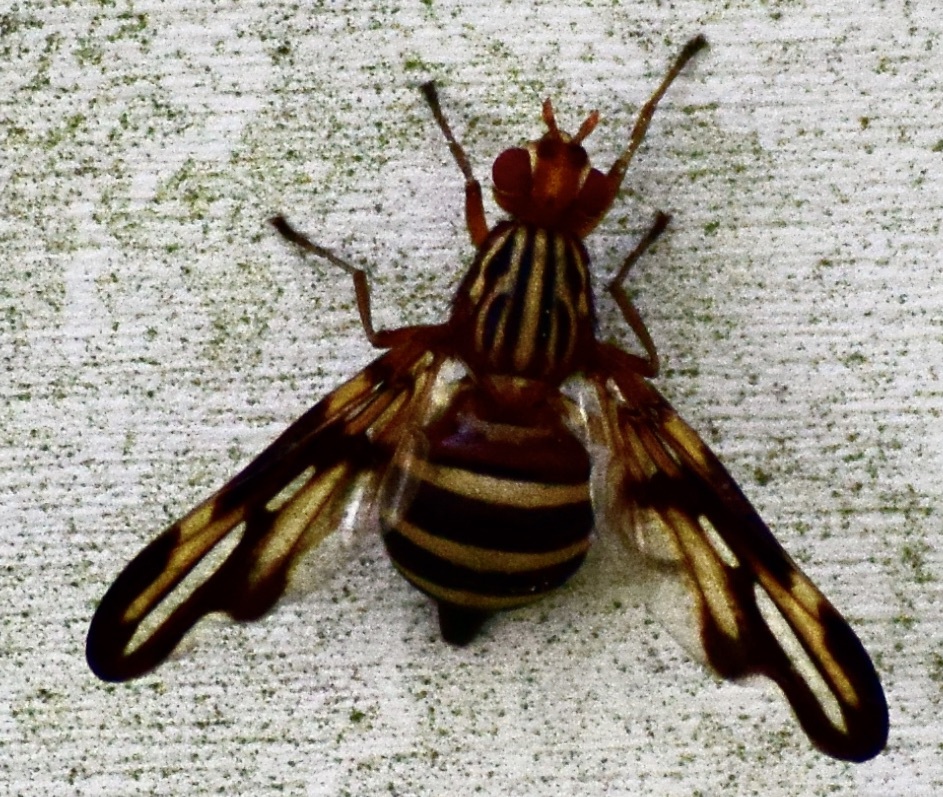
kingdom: Animalia
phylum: Arthropoda
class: Insecta
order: Diptera
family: Ulidiidae
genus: Idana
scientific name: Idana marginata
